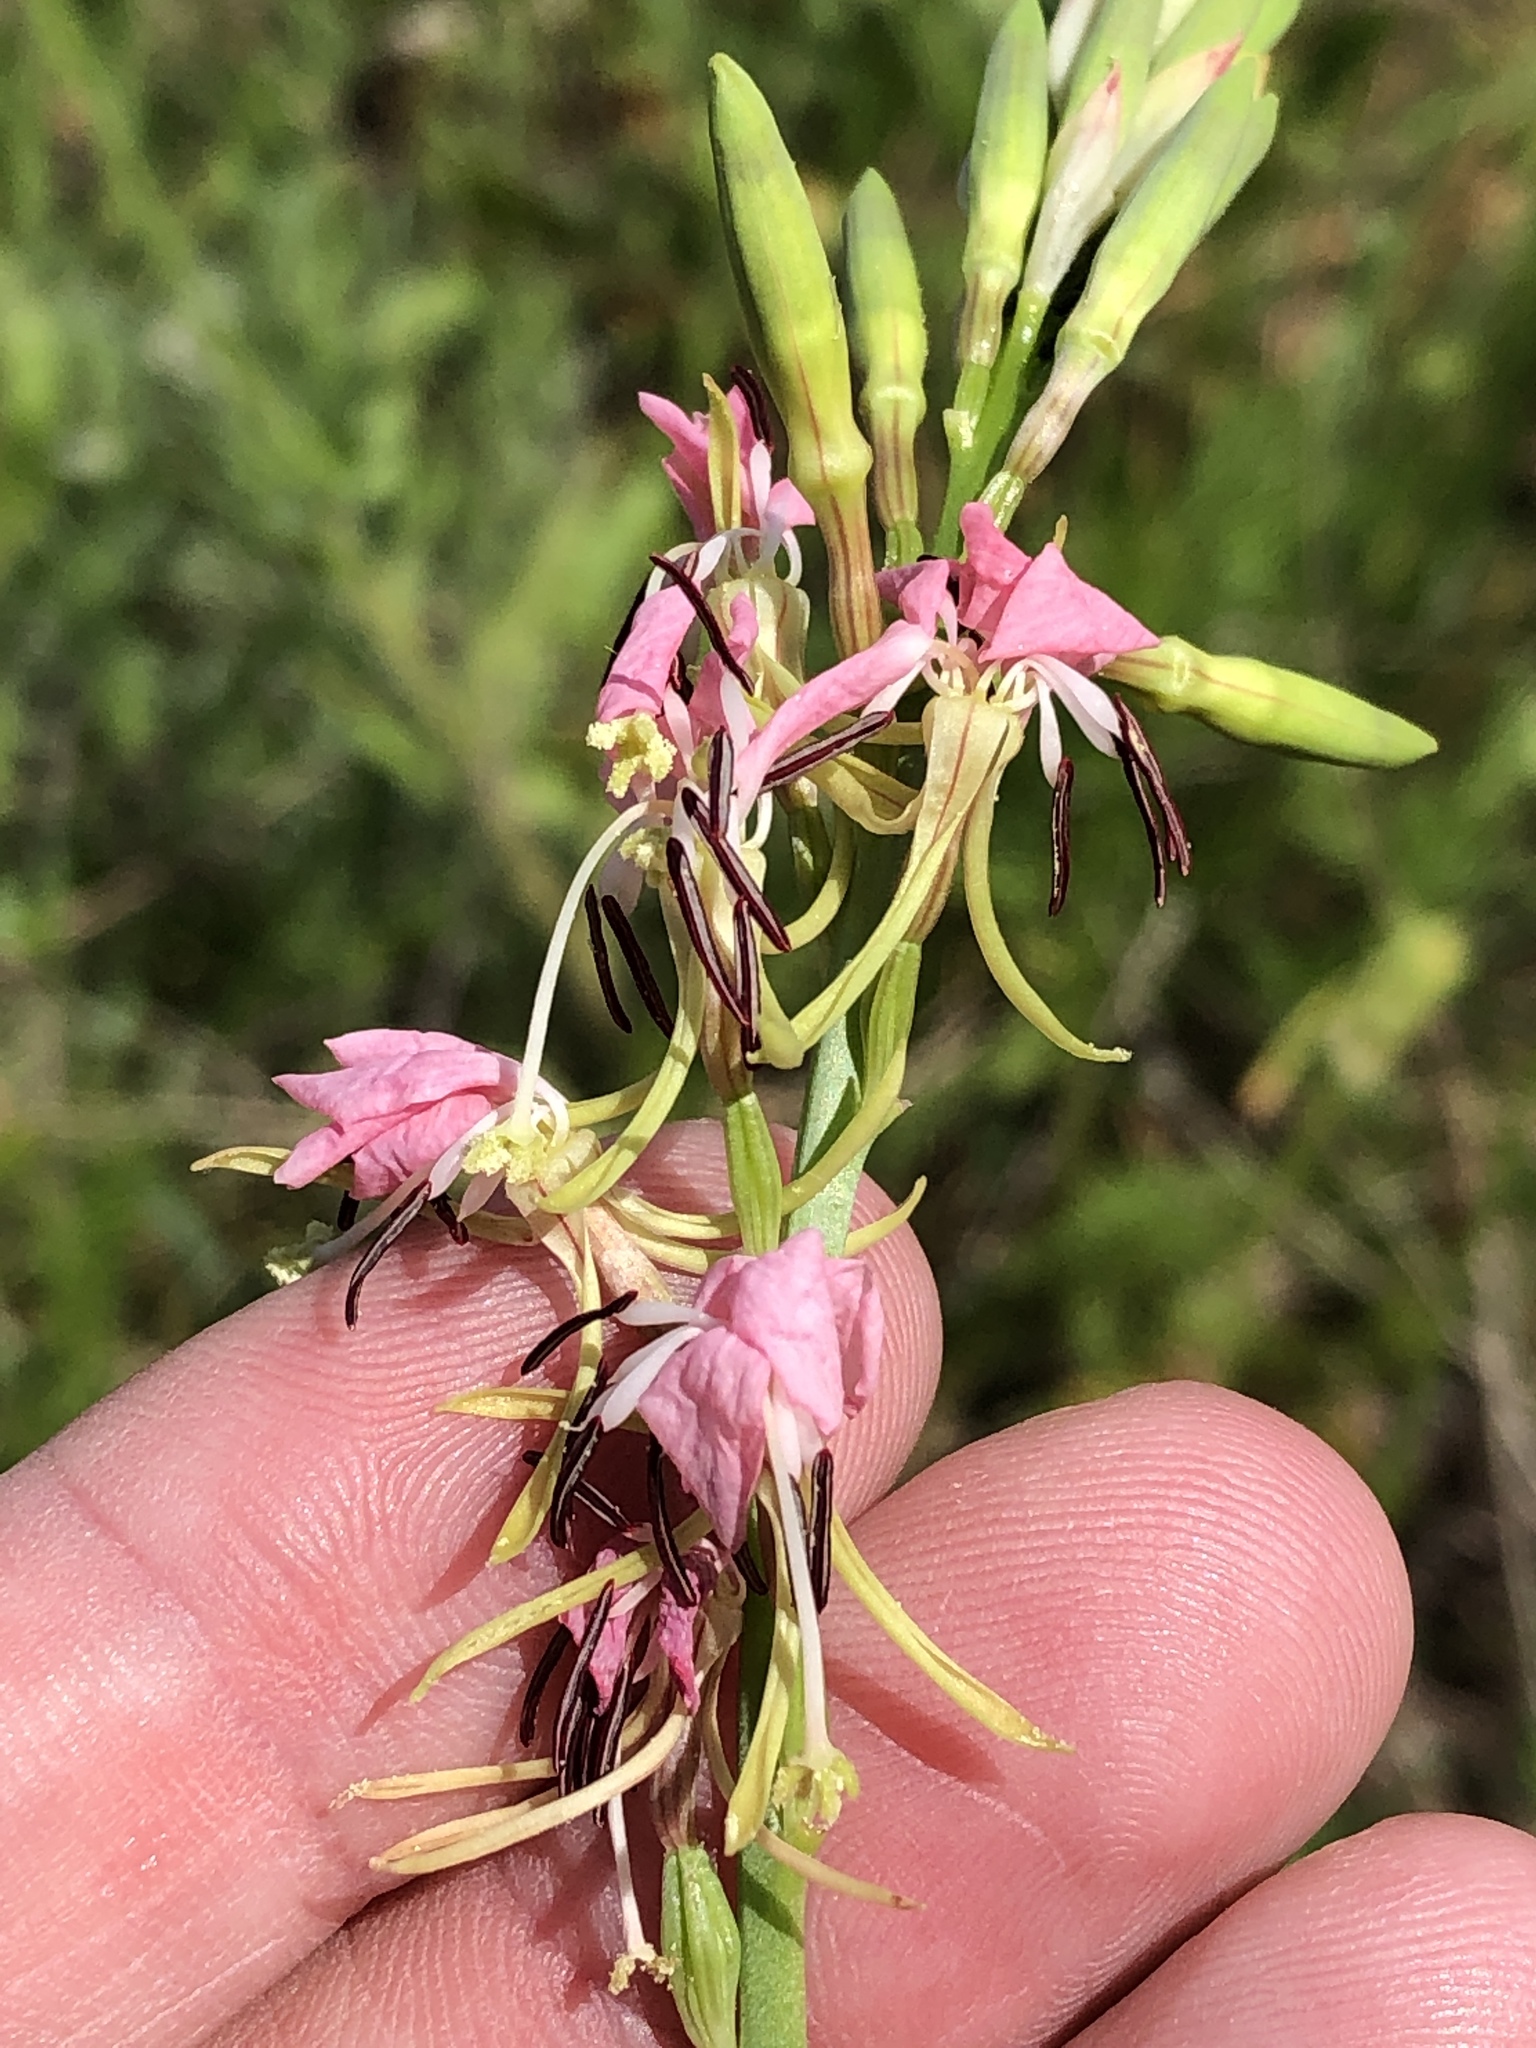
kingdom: Plantae
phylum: Tracheophyta
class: Magnoliopsida
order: Myrtales
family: Onagraceae
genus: Oenothera
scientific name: Oenothera suffulta
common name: Kisses
